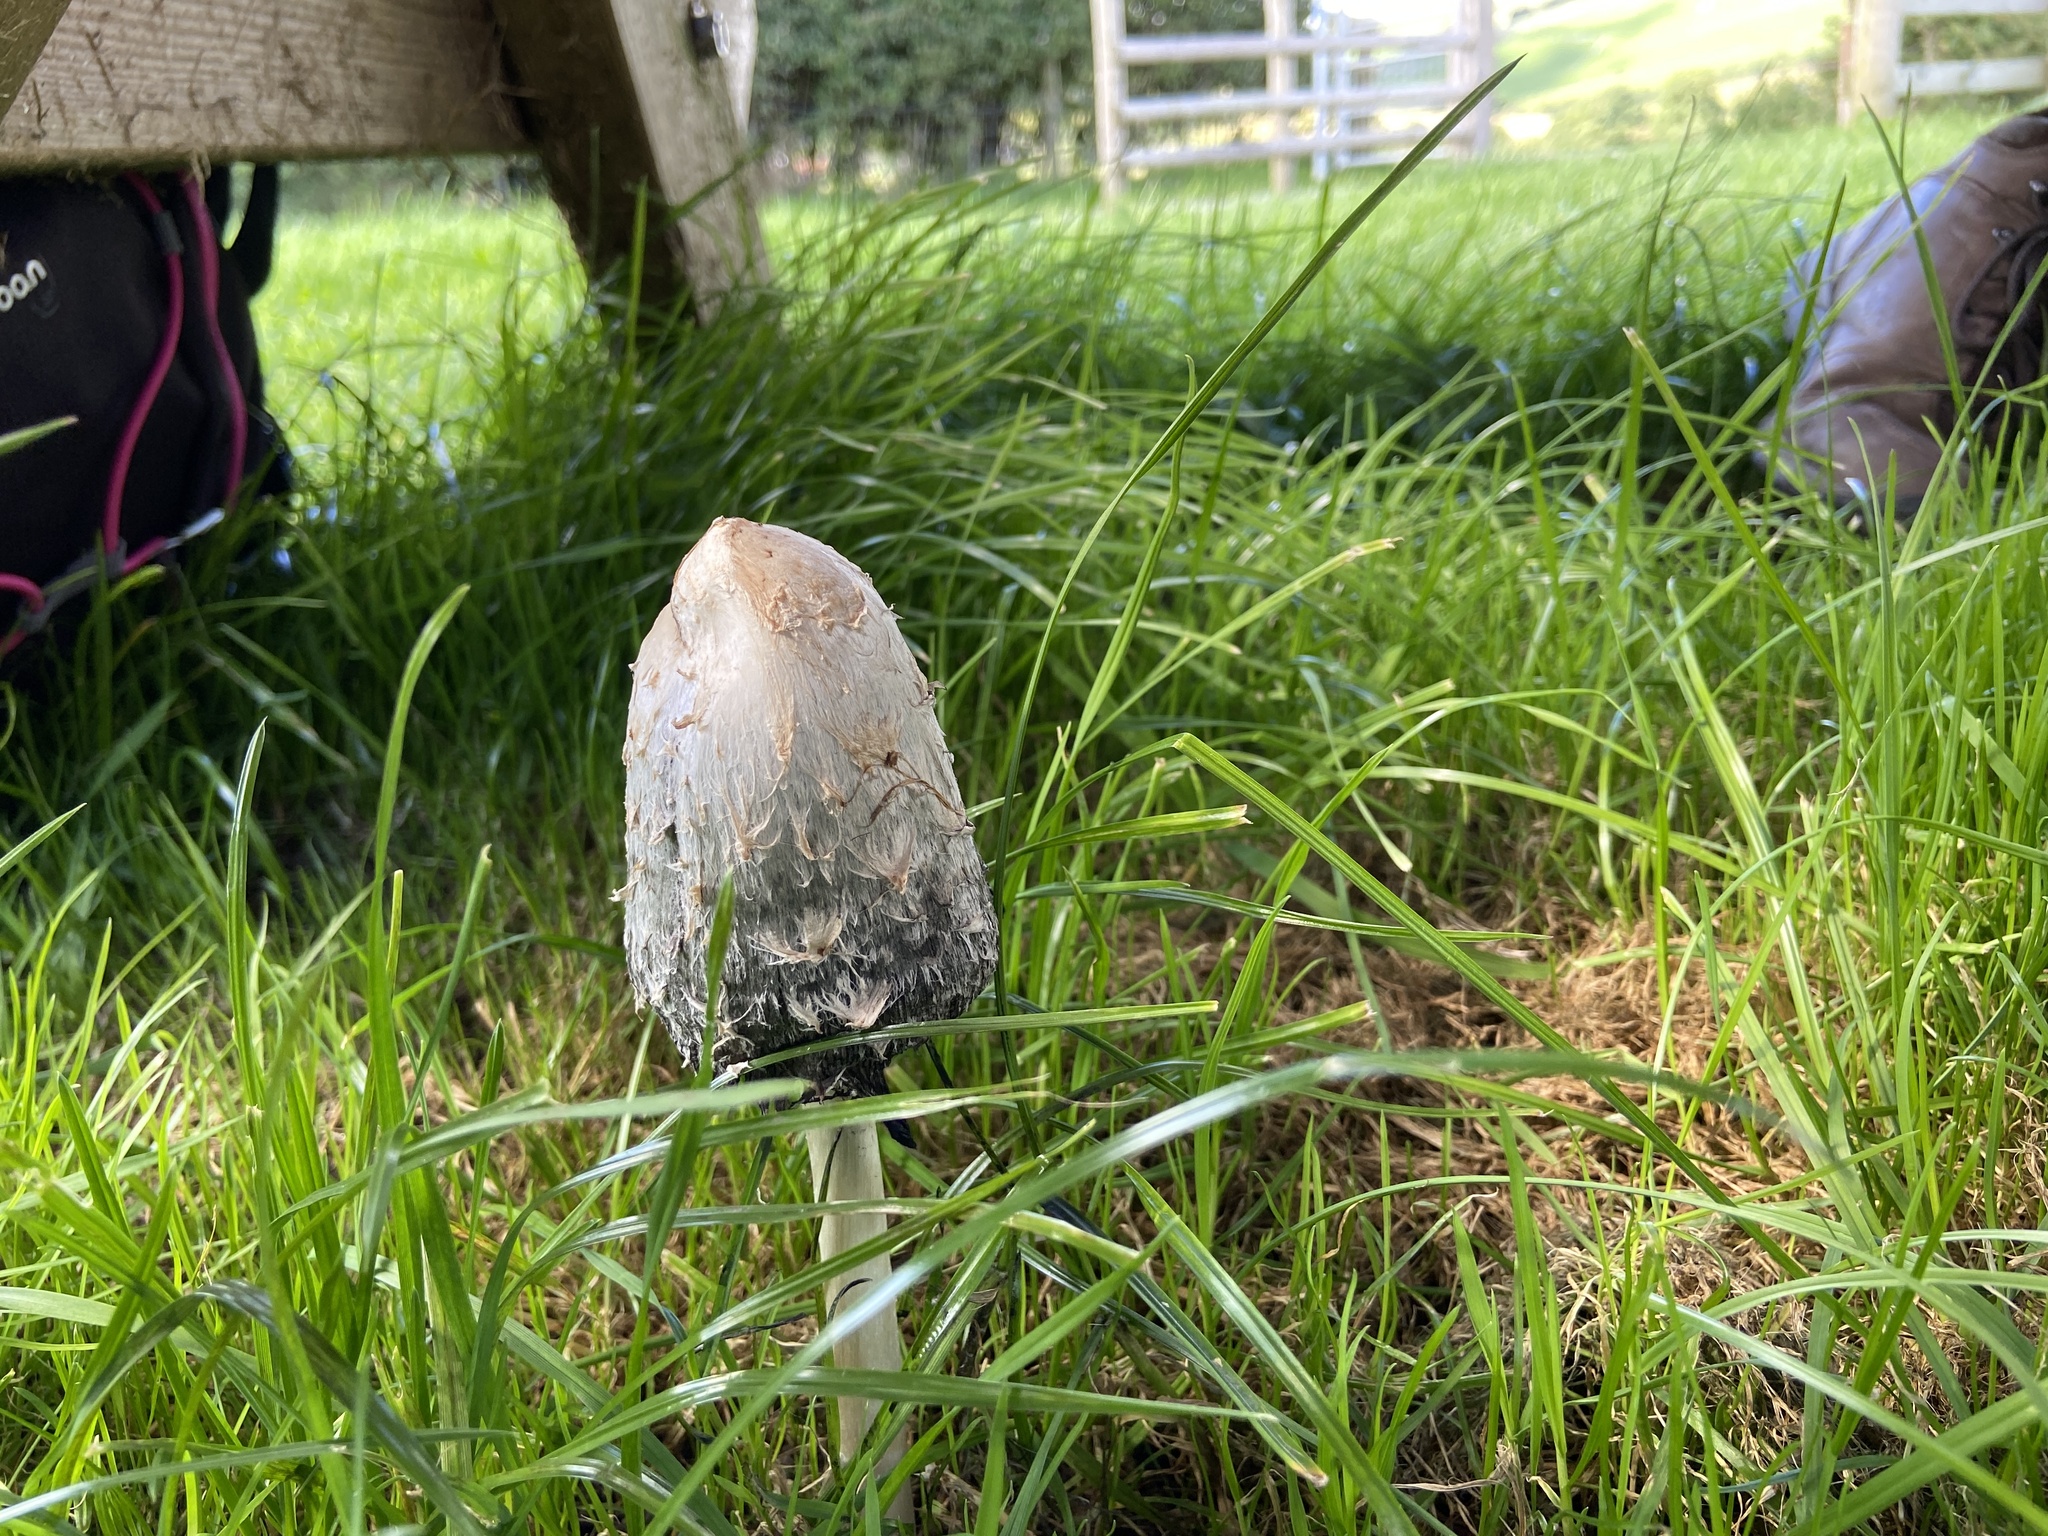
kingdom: Fungi
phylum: Basidiomycota
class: Agaricomycetes
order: Agaricales
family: Agaricaceae
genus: Coprinus
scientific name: Coprinus comatus
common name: Lawyer's wig
